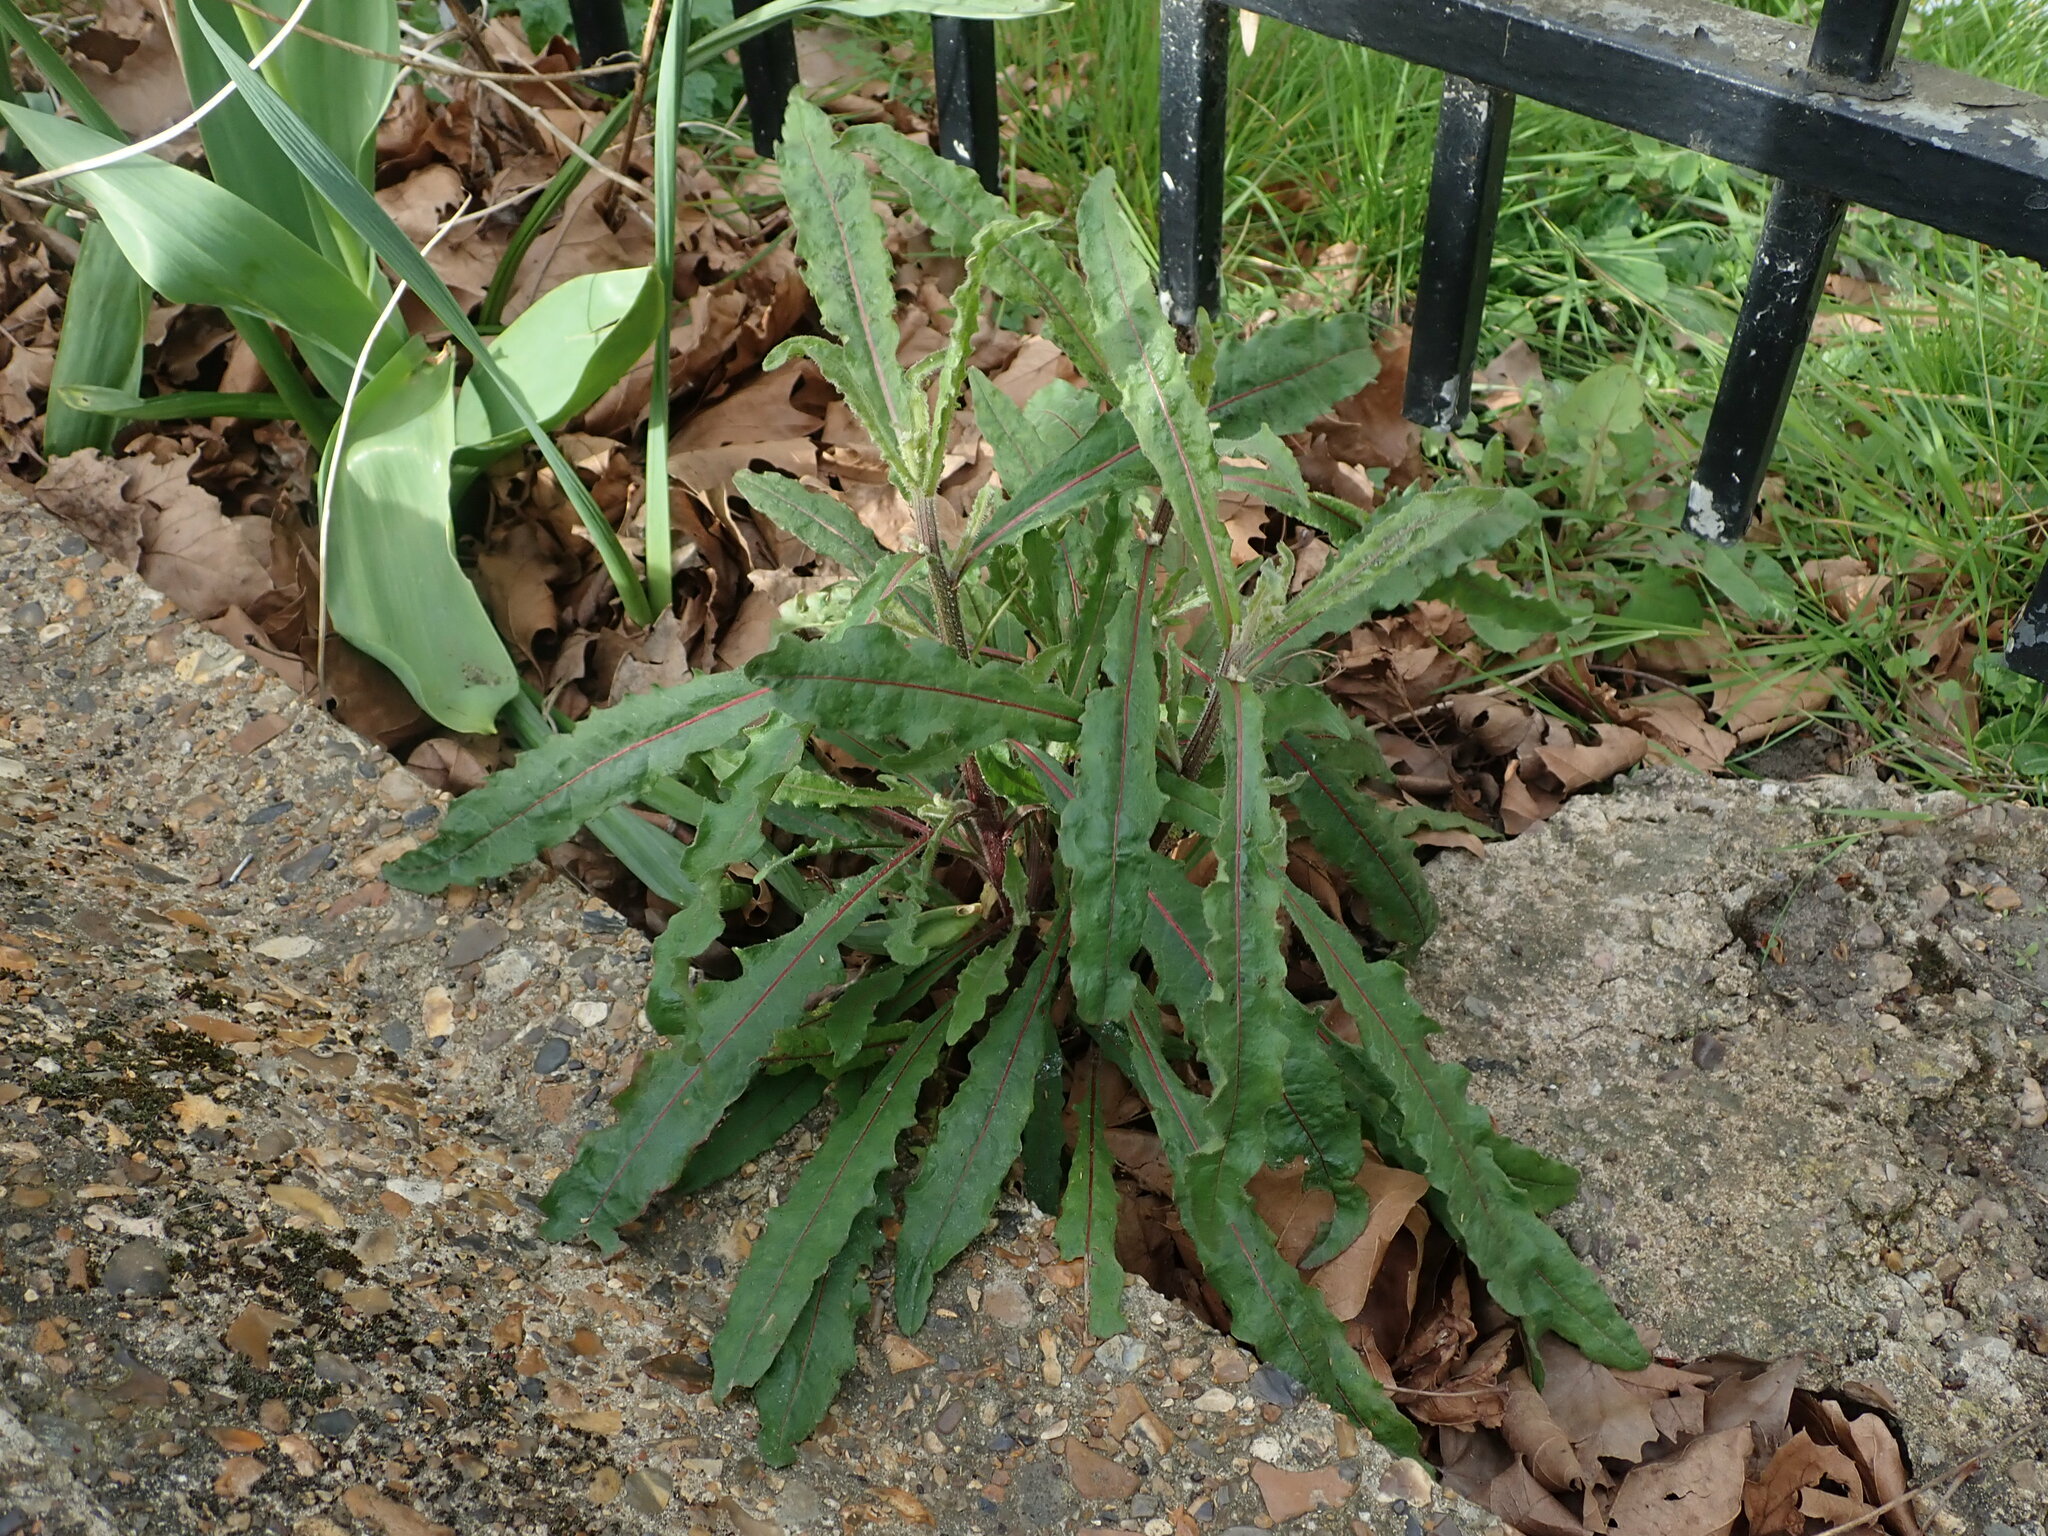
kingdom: Plantae
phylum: Tracheophyta
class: Magnoliopsida
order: Asterales
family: Asteraceae
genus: Picris
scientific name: Picris hieracioides
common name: Hawkweed oxtongue
